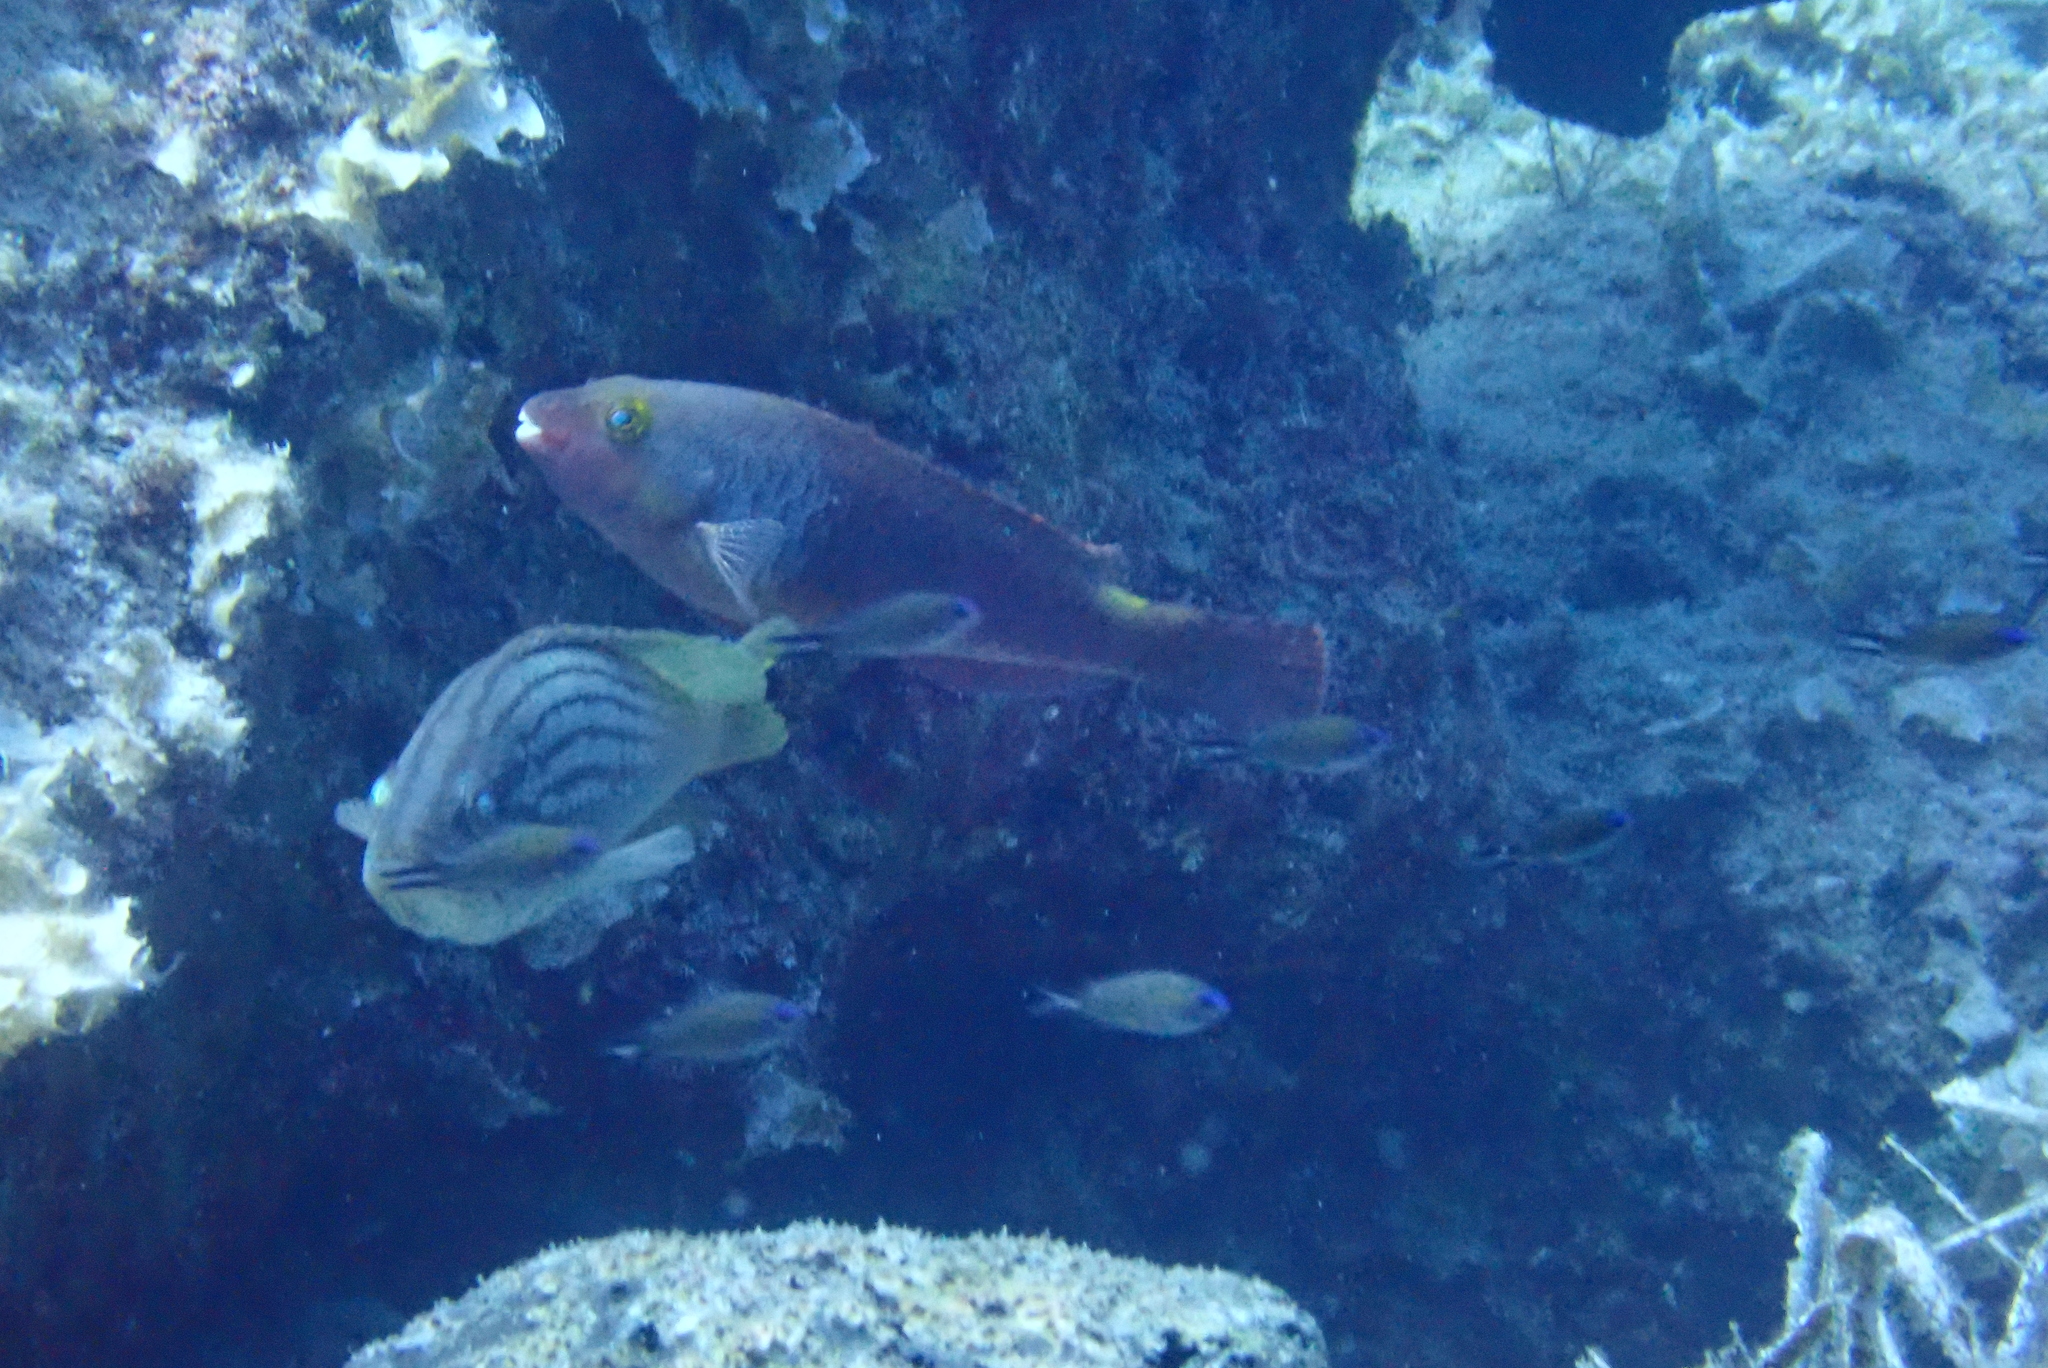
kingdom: Animalia
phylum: Chordata
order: Perciformes
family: Serranidae
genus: Epinephelus
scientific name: Epinephelus costae
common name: Goldblotch grouper
